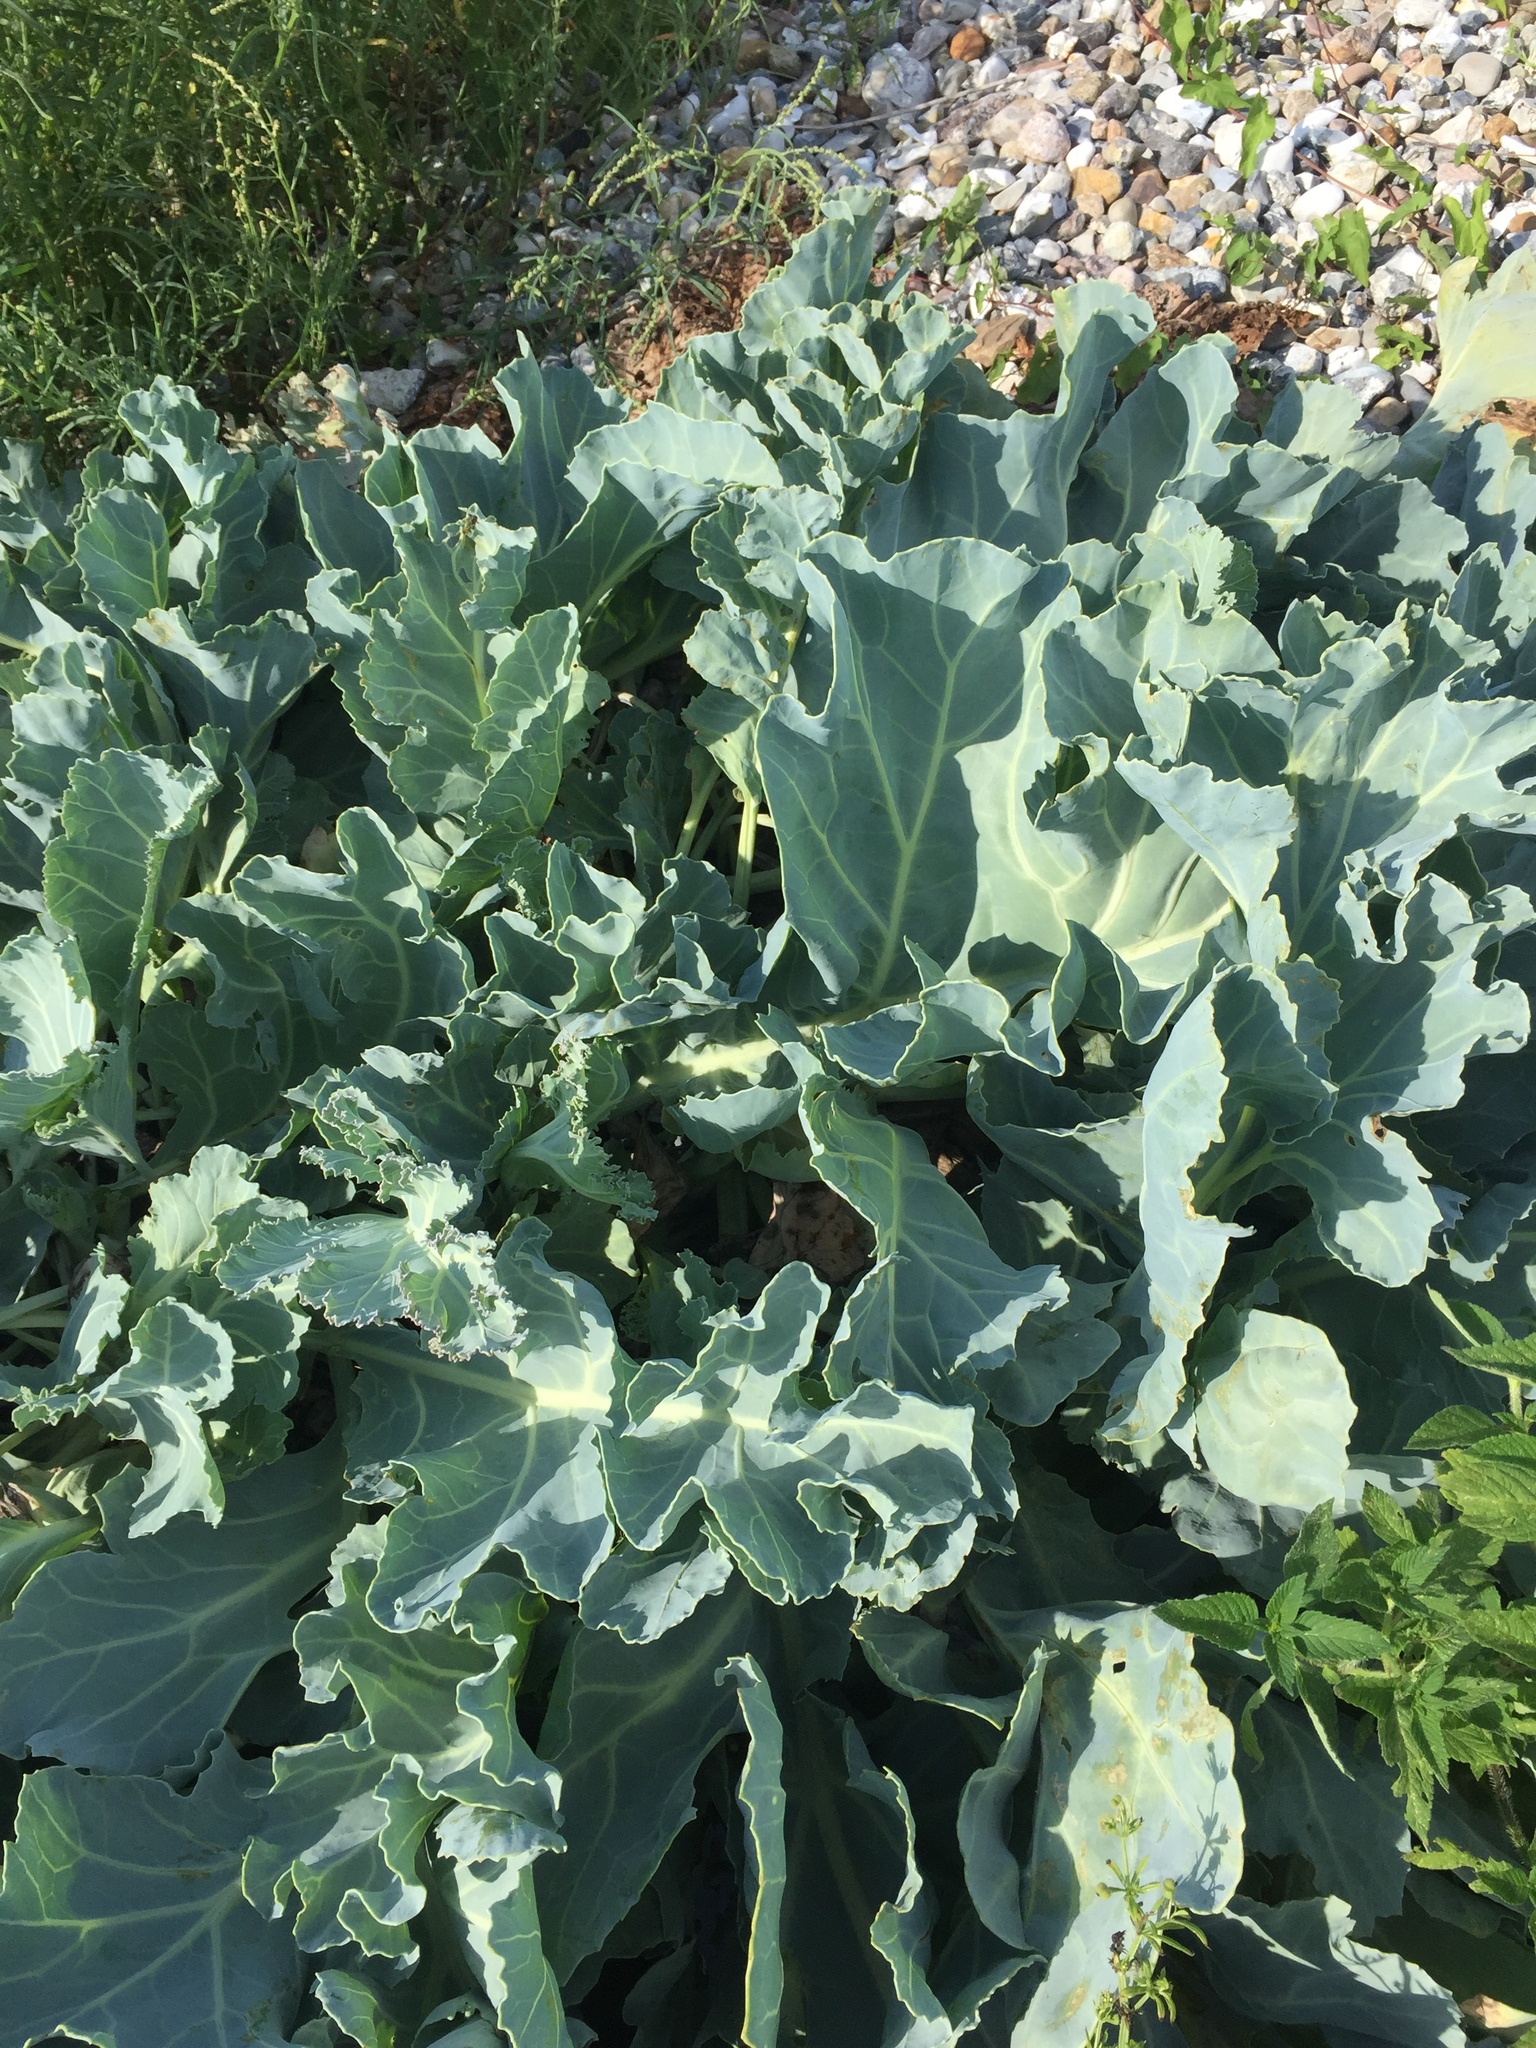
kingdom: Plantae
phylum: Tracheophyta
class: Magnoliopsida
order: Brassicales
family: Brassicaceae
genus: Crambe
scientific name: Crambe maritima
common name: Sea-kale
